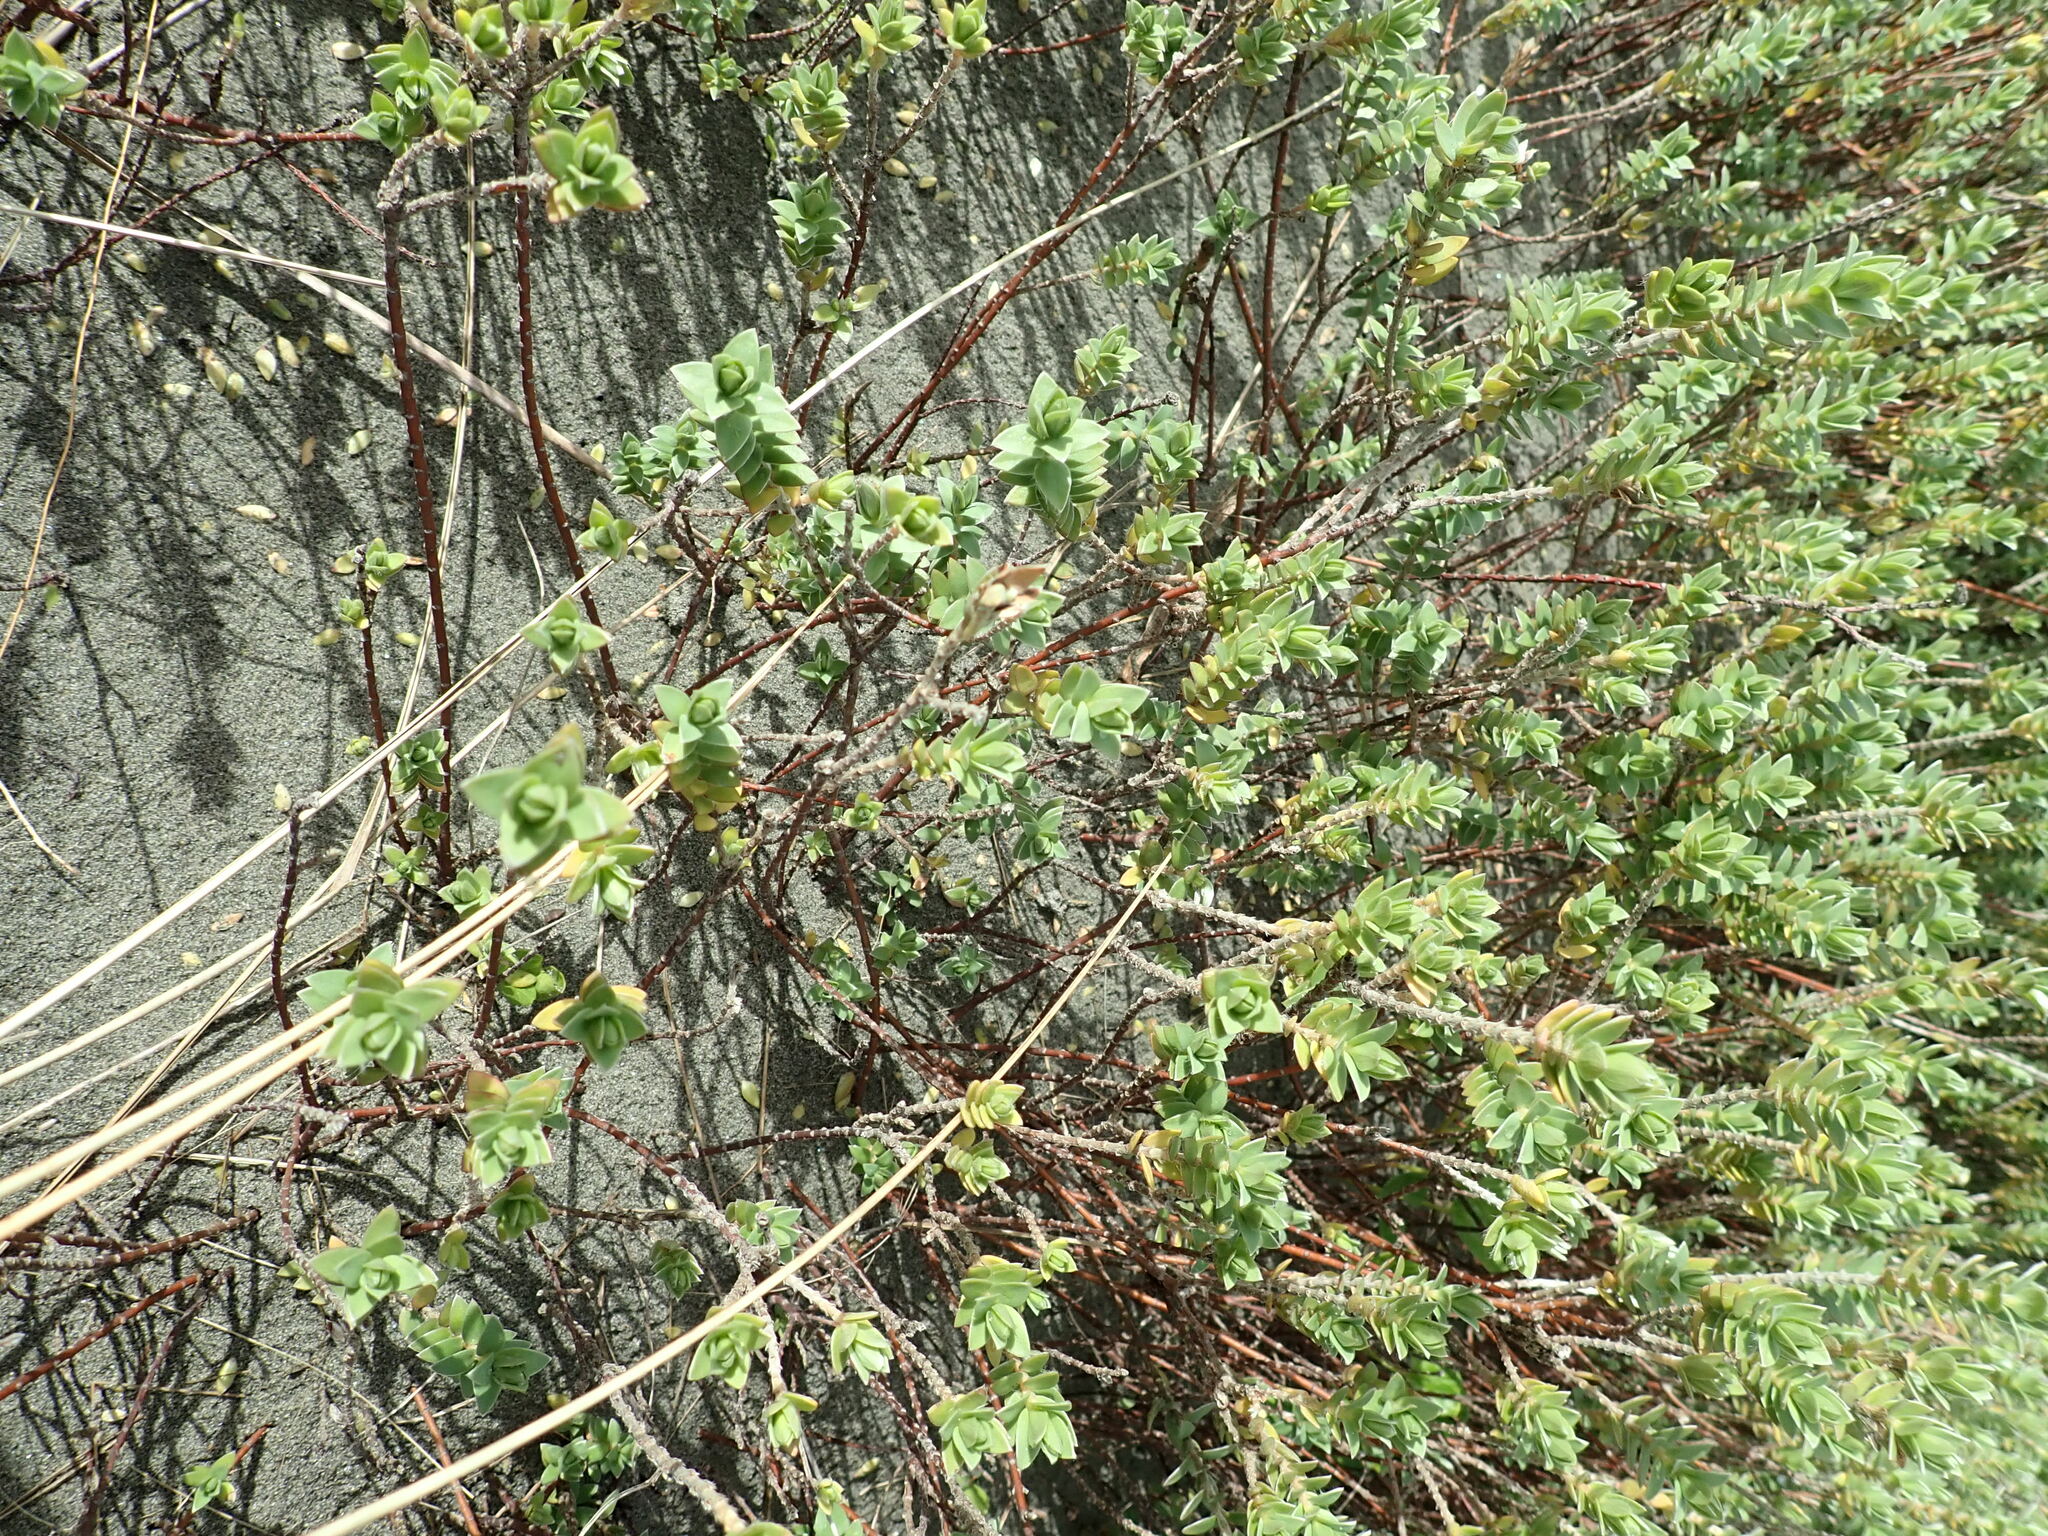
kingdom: Plantae
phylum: Tracheophyta
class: Magnoliopsida
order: Malvales
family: Thymelaeaceae
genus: Pimelea
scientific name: Pimelea villosa
